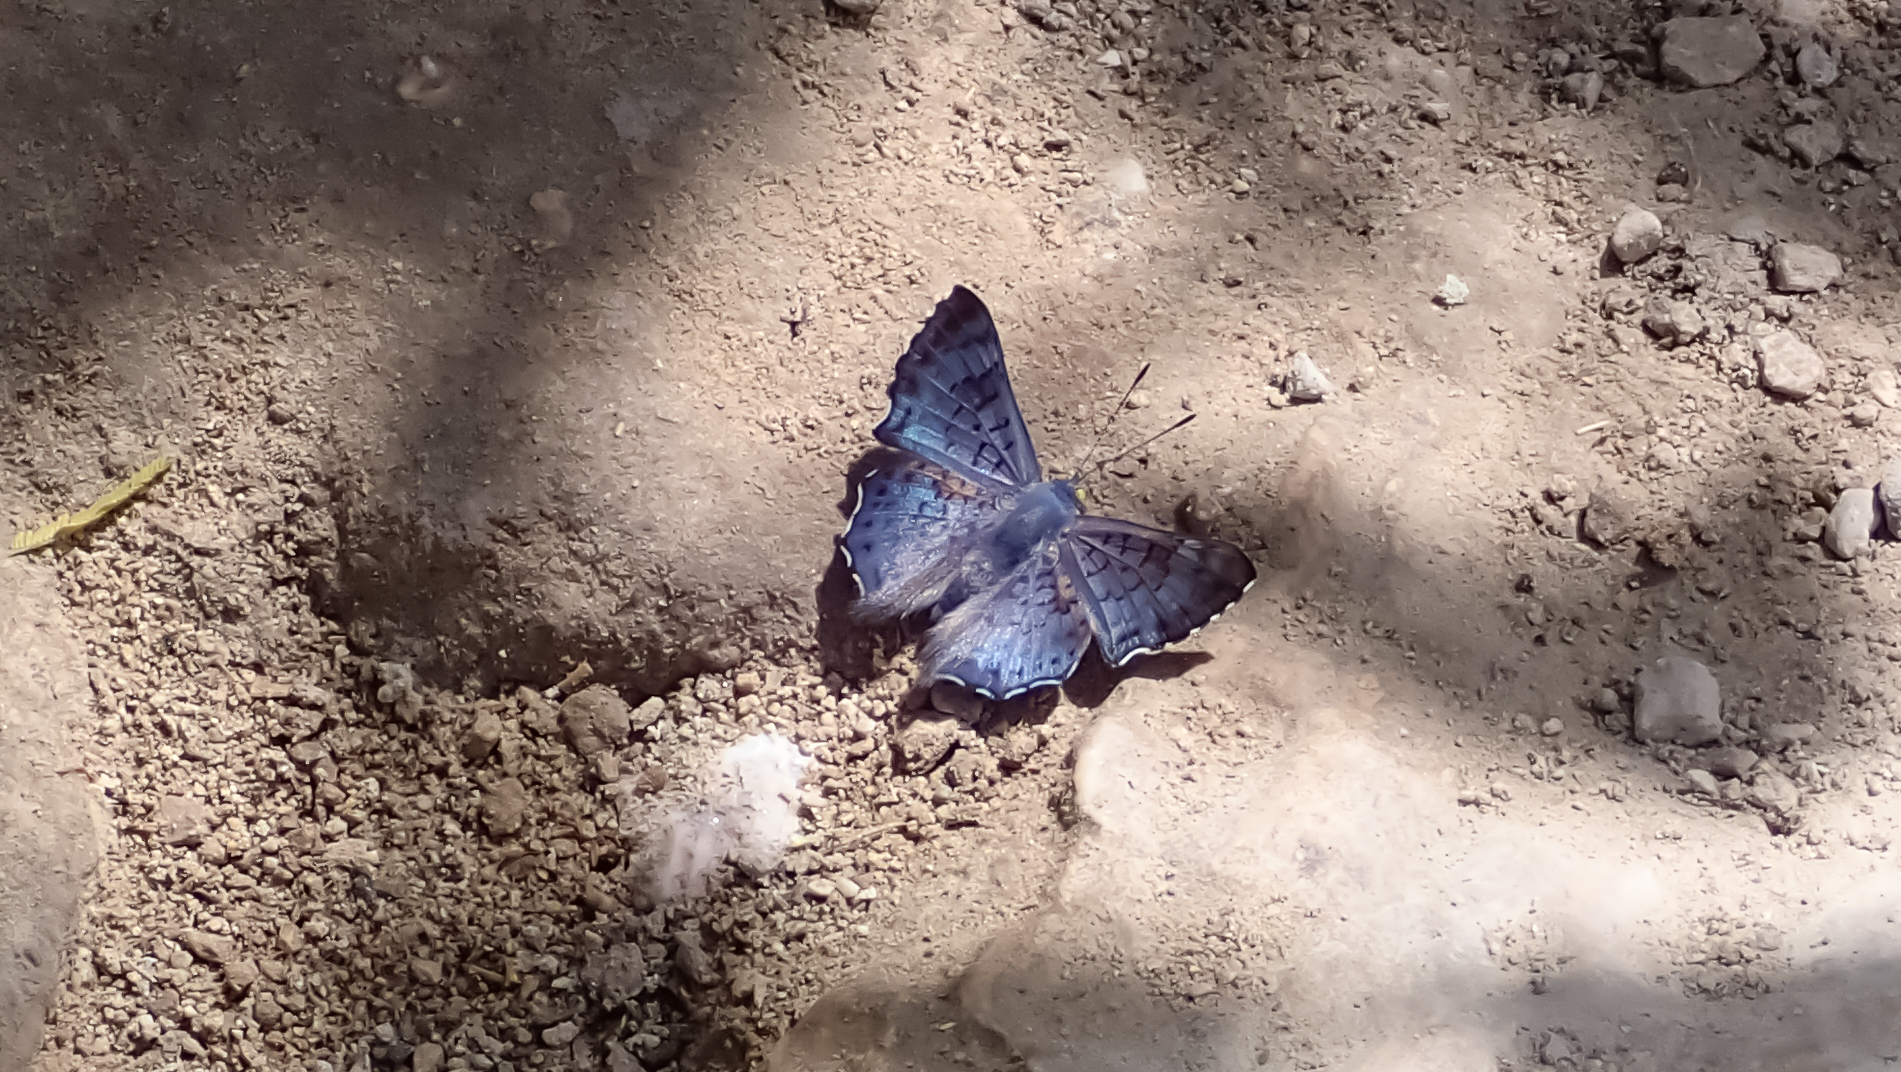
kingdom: Animalia
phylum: Arthropoda
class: Insecta
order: Lepidoptera
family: Riodinidae
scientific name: Riodinidae
